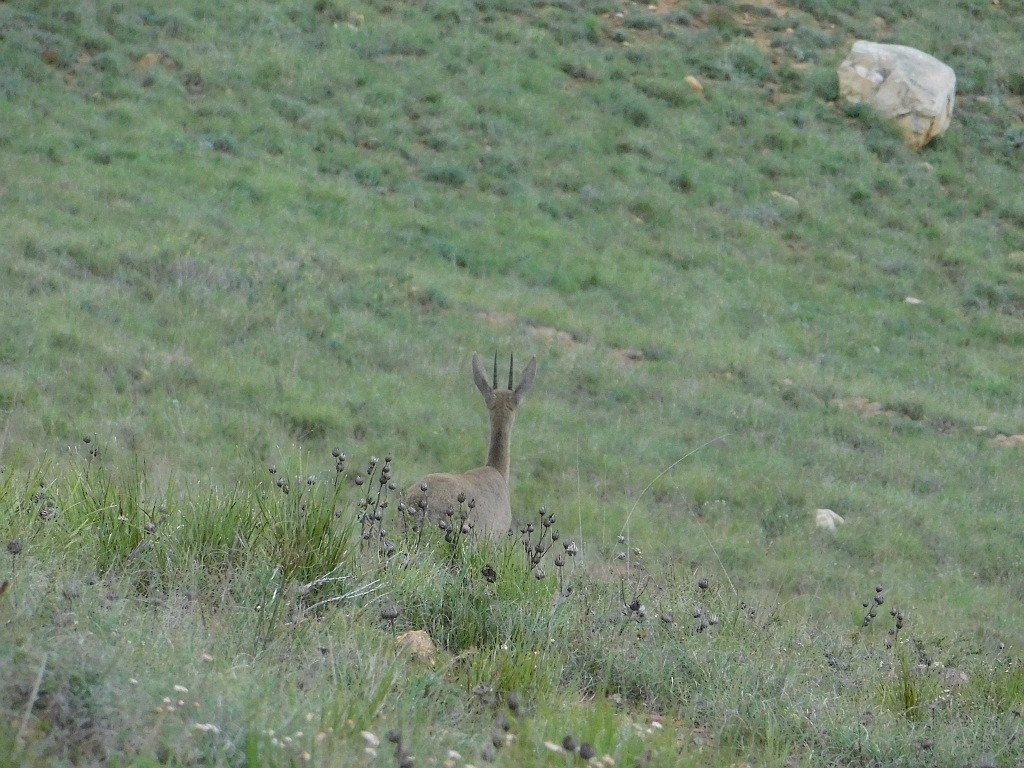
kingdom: Animalia
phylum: Chordata
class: Mammalia
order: Artiodactyla
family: Bovidae
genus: Pelea
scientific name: Pelea capreolus
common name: Common rhebok
